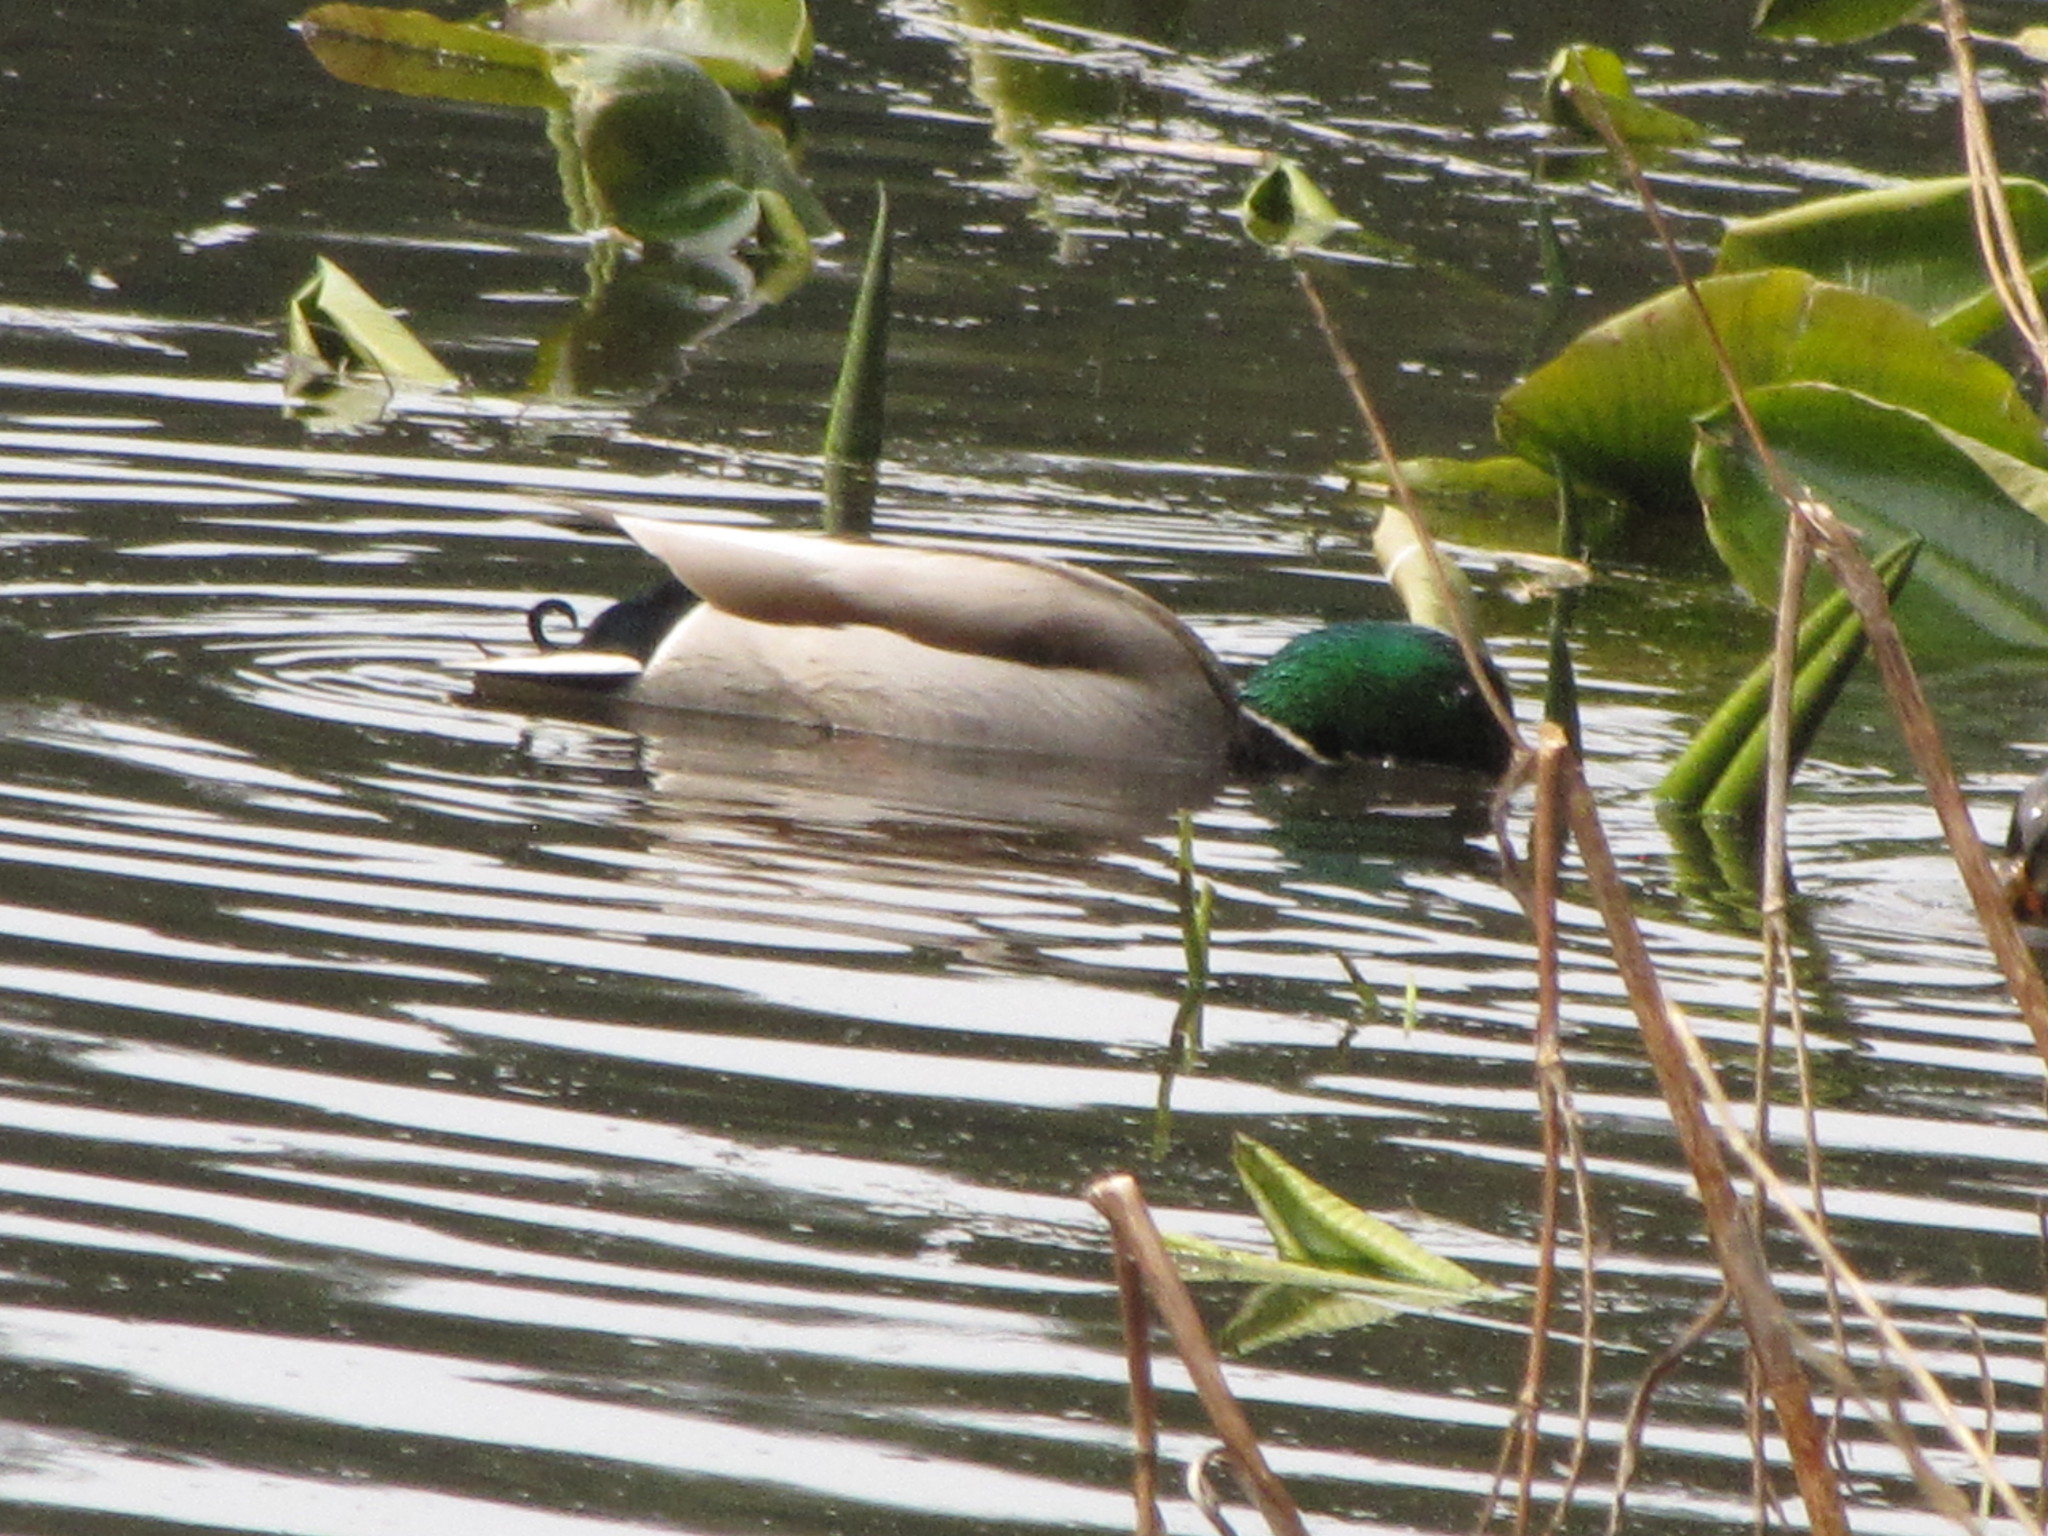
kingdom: Animalia
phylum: Chordata
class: Aves
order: Anseriformes
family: Anatidae
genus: Anas
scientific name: Anas platyrhynchos
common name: Mallard
